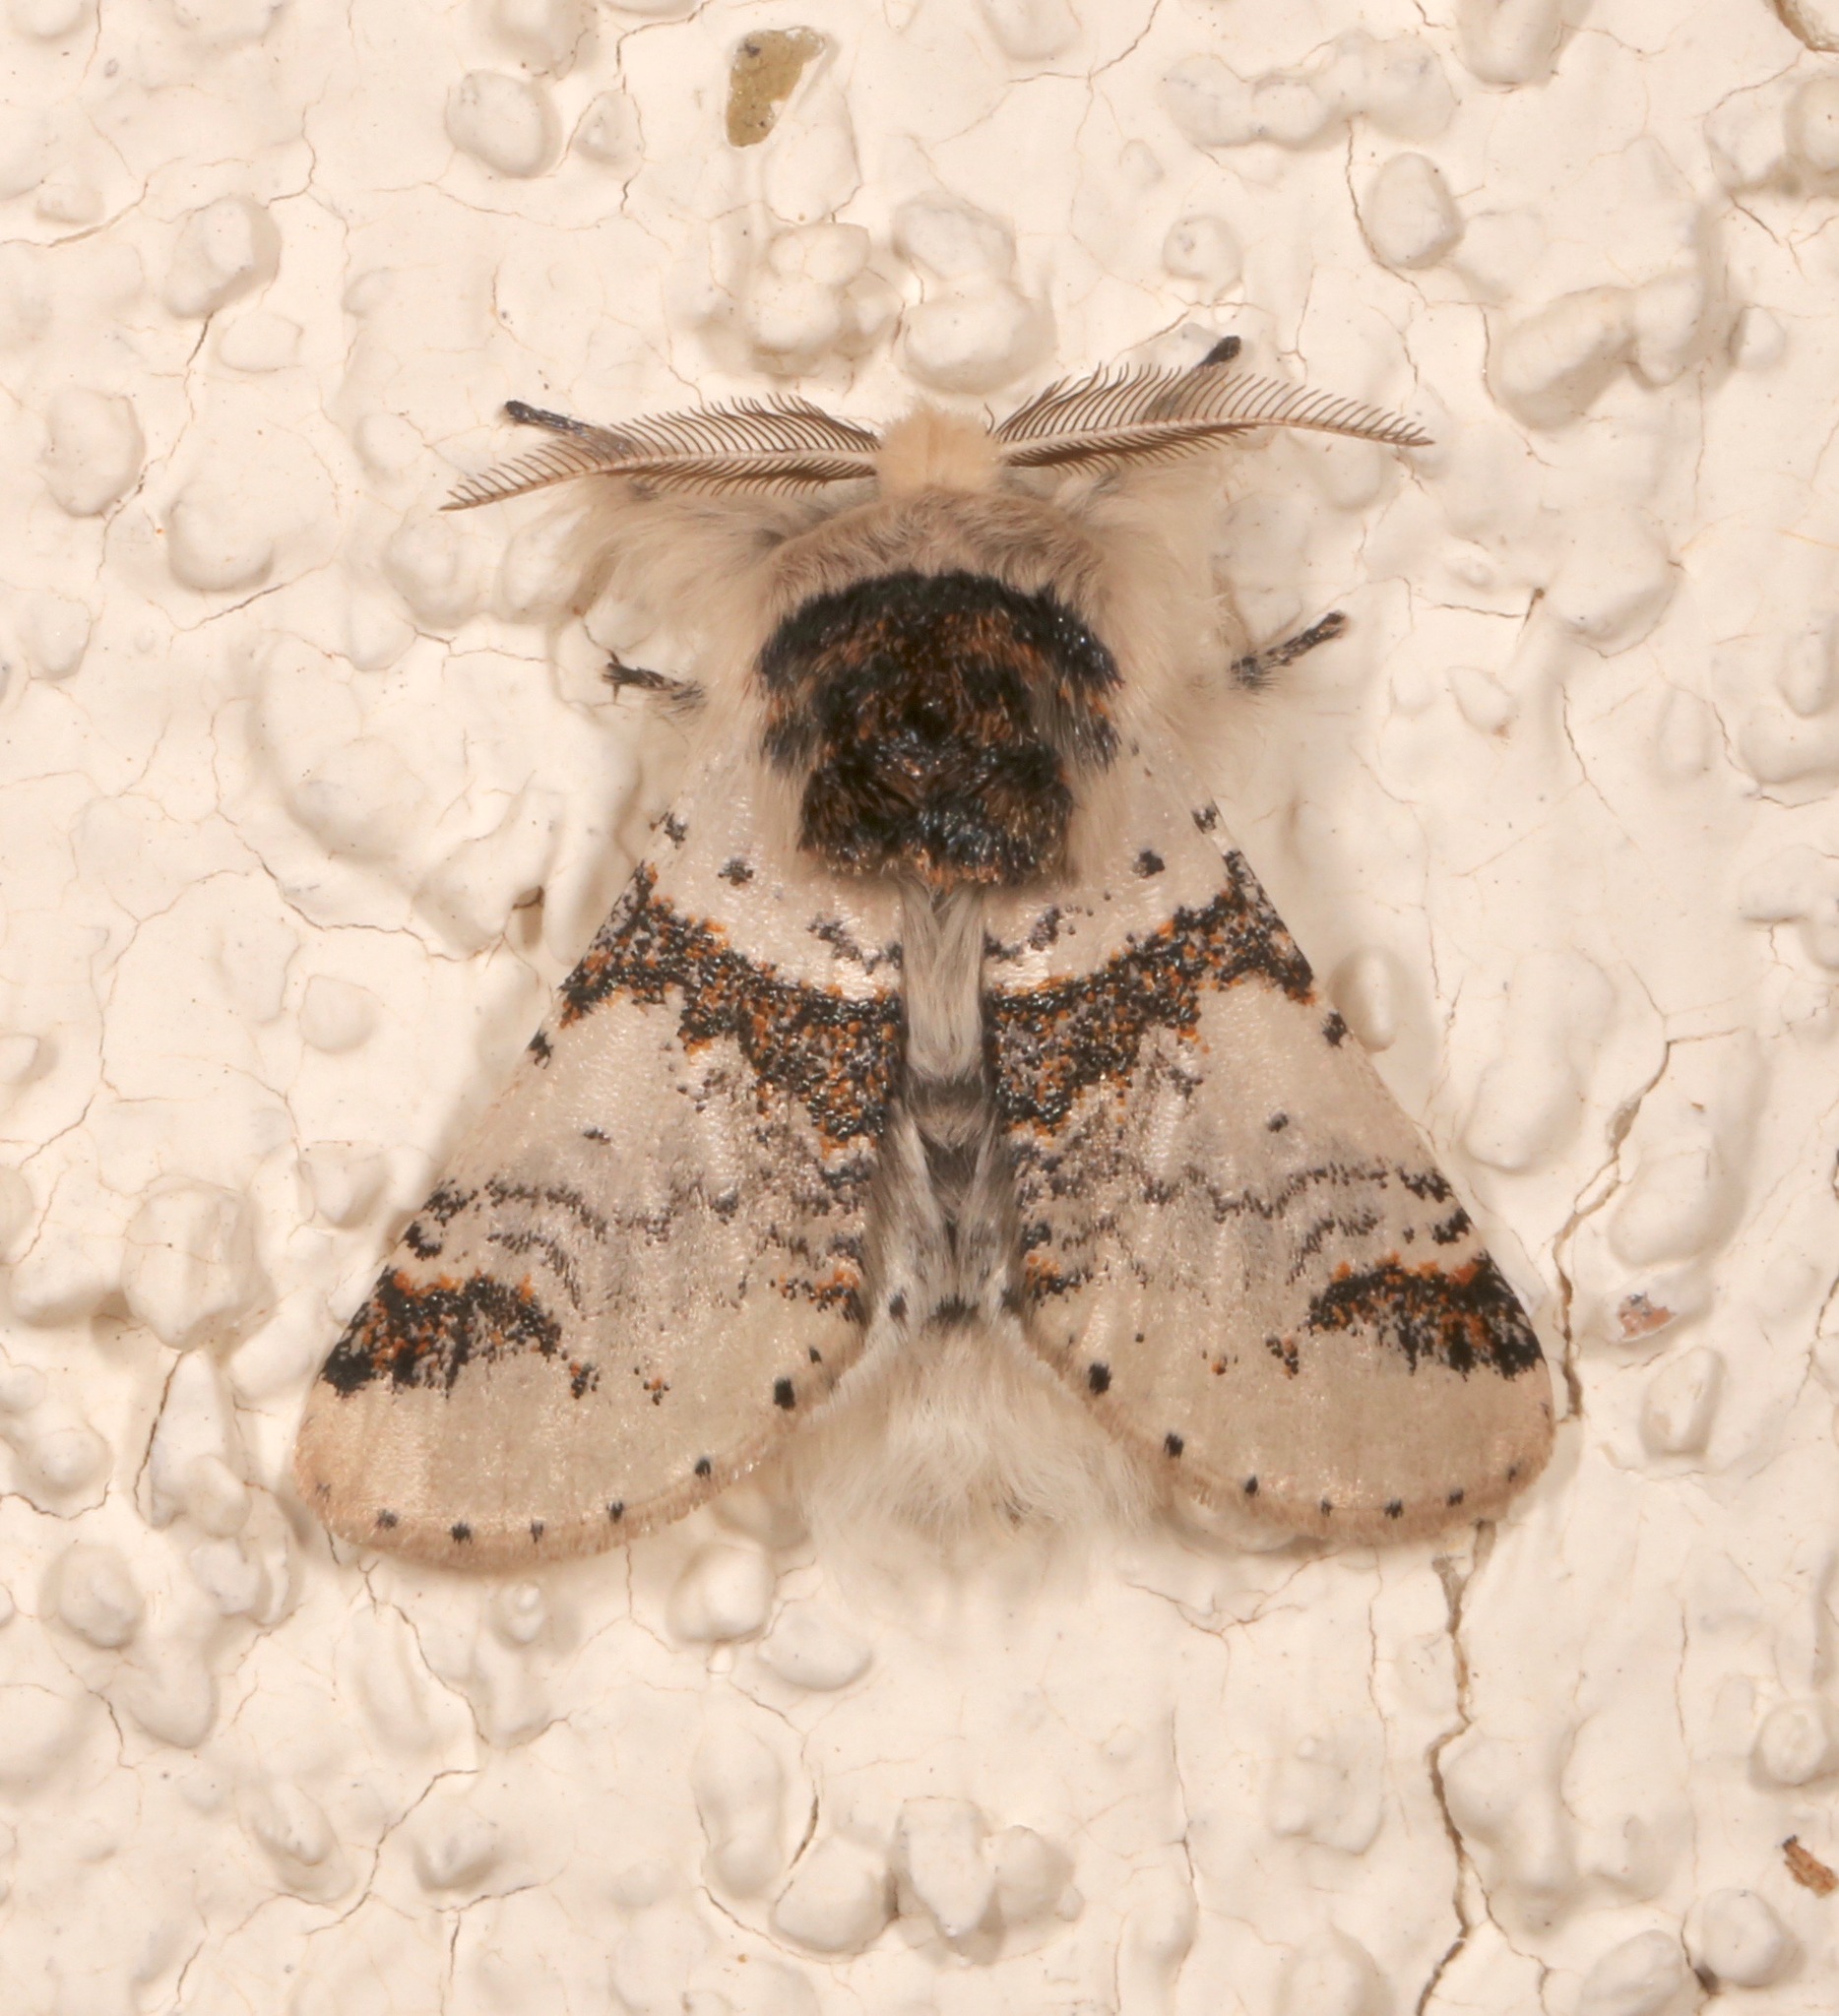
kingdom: Animalia
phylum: Arthropoda
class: Insecta
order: Lepidoptera
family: Notodontidae
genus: Furcula
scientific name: Furcula scolopendrina
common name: Zigzag furcula moth
